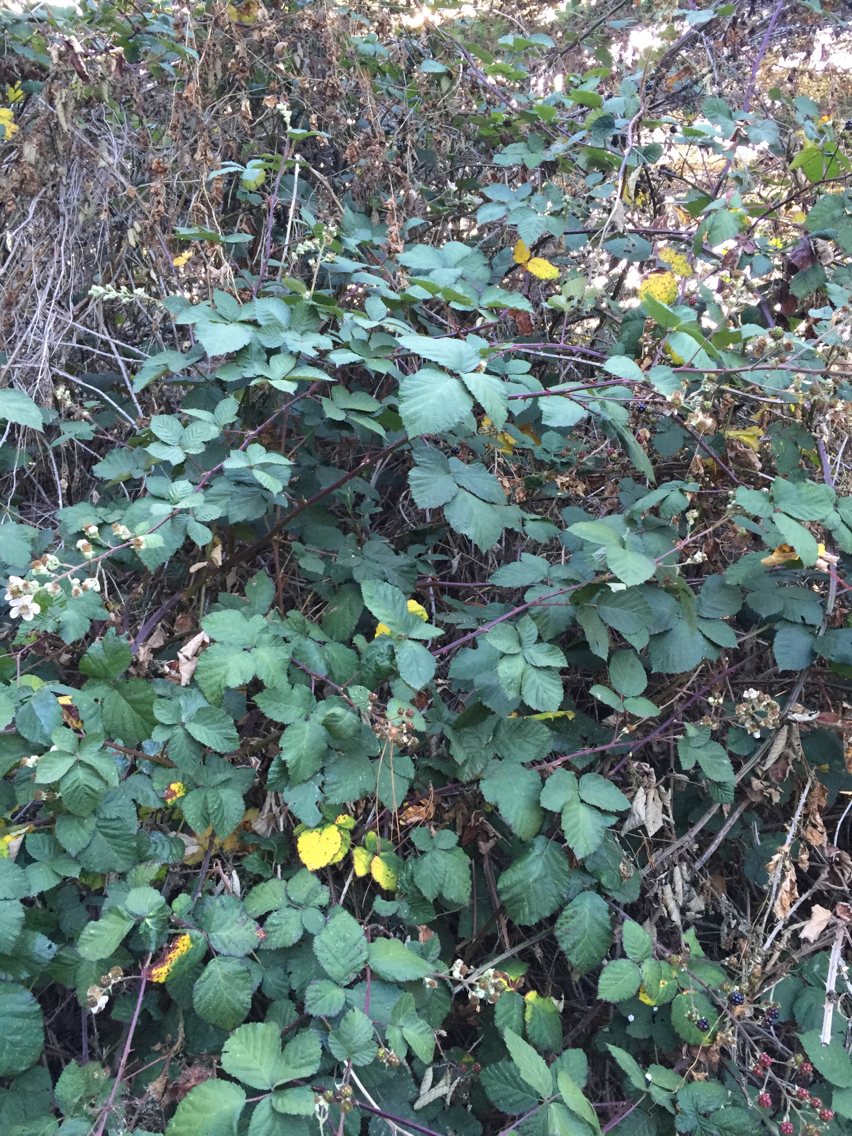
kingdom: Plantae
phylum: Tracheophyta
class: Magnoliopsida
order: Rosales
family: Rosaceae
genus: Rubus
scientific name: Rubus armeniacus
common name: Himalayan blackberry
